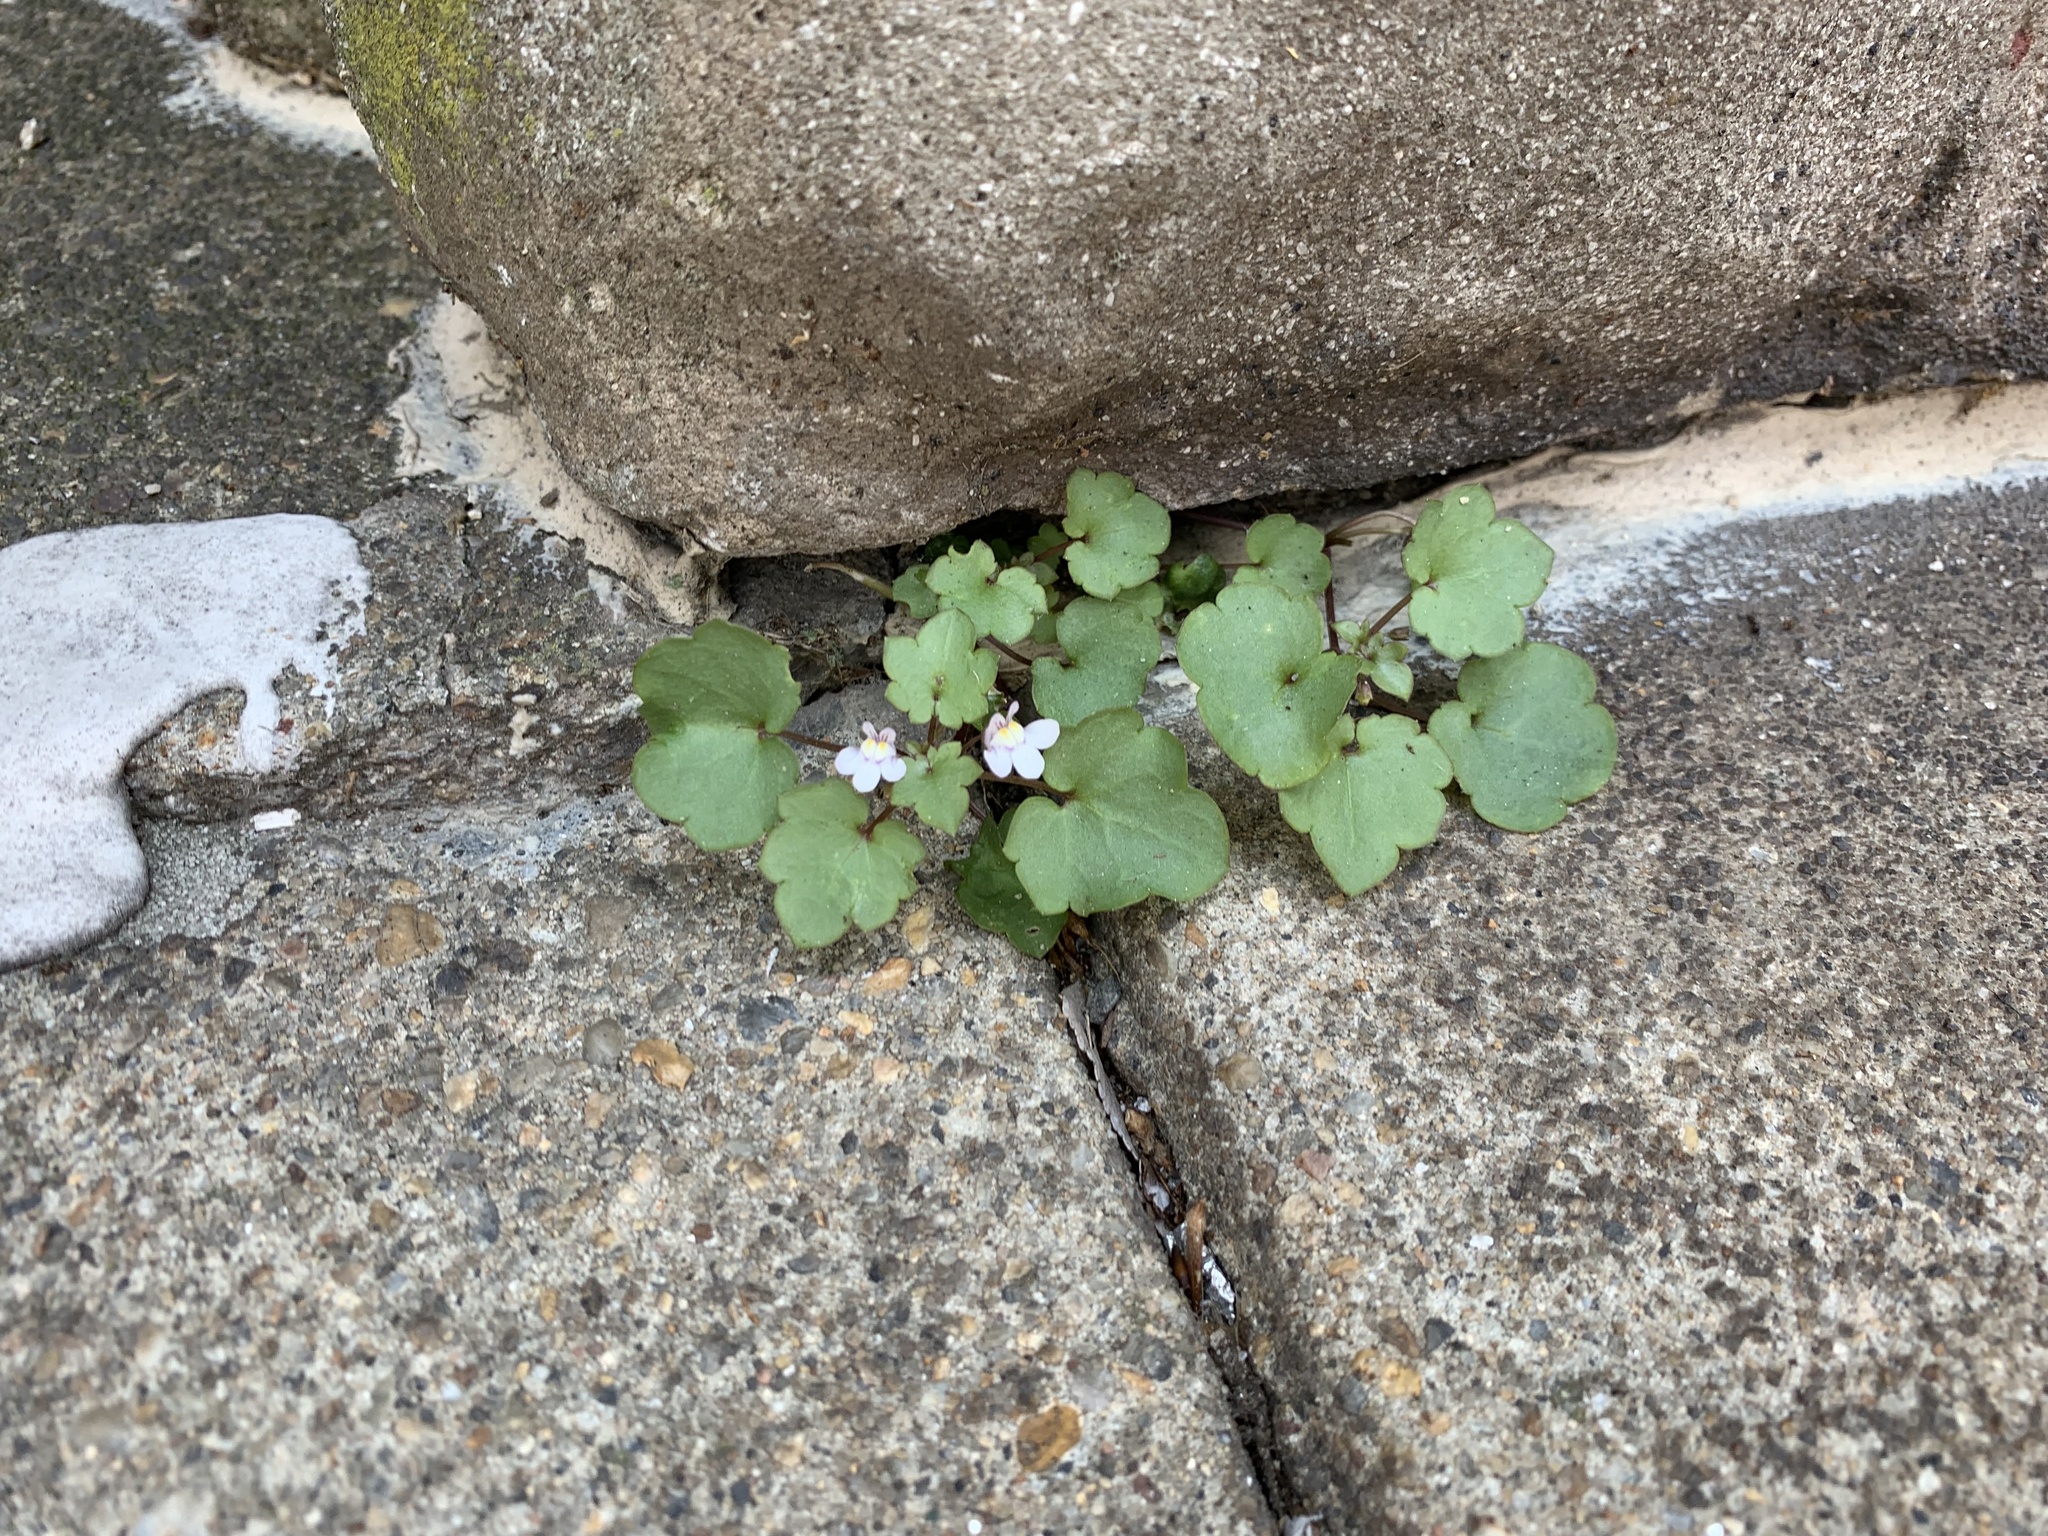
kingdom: Plantae
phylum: Tracheophyta
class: Magnoliopsida
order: Lamiales
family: Plantaginaceae
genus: Cymbalaria
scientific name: Cymbalaria muralis
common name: Ivy-leaved toadflax
